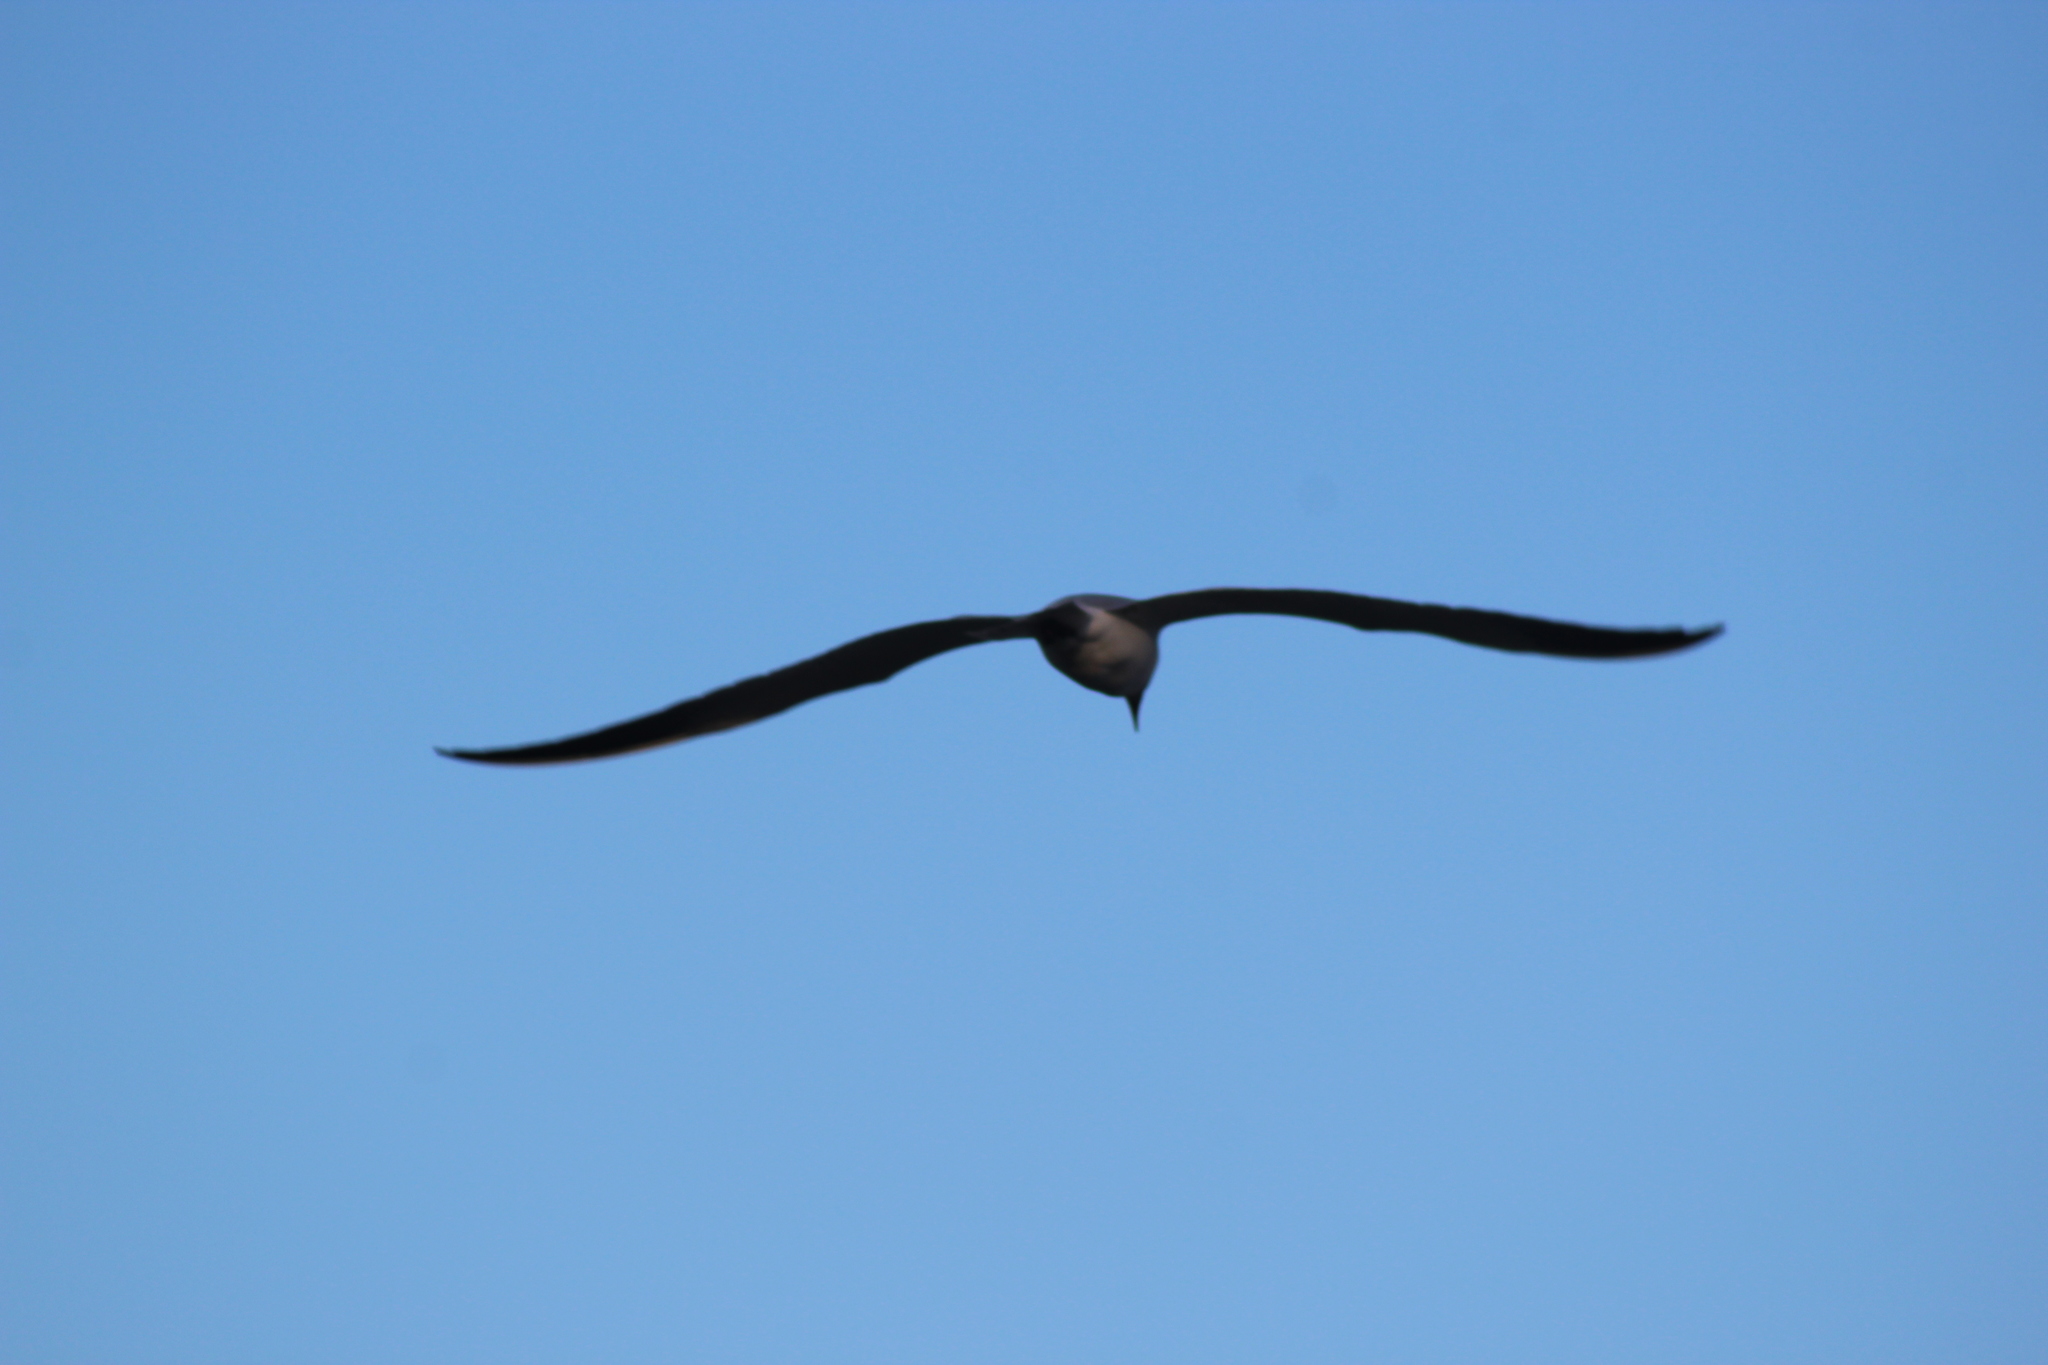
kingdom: Animalia
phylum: Chordata
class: Aves
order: Charadriiformes
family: Laridae
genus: Hydroprogne
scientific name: Hydroprogne caspia
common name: Caspian tern
